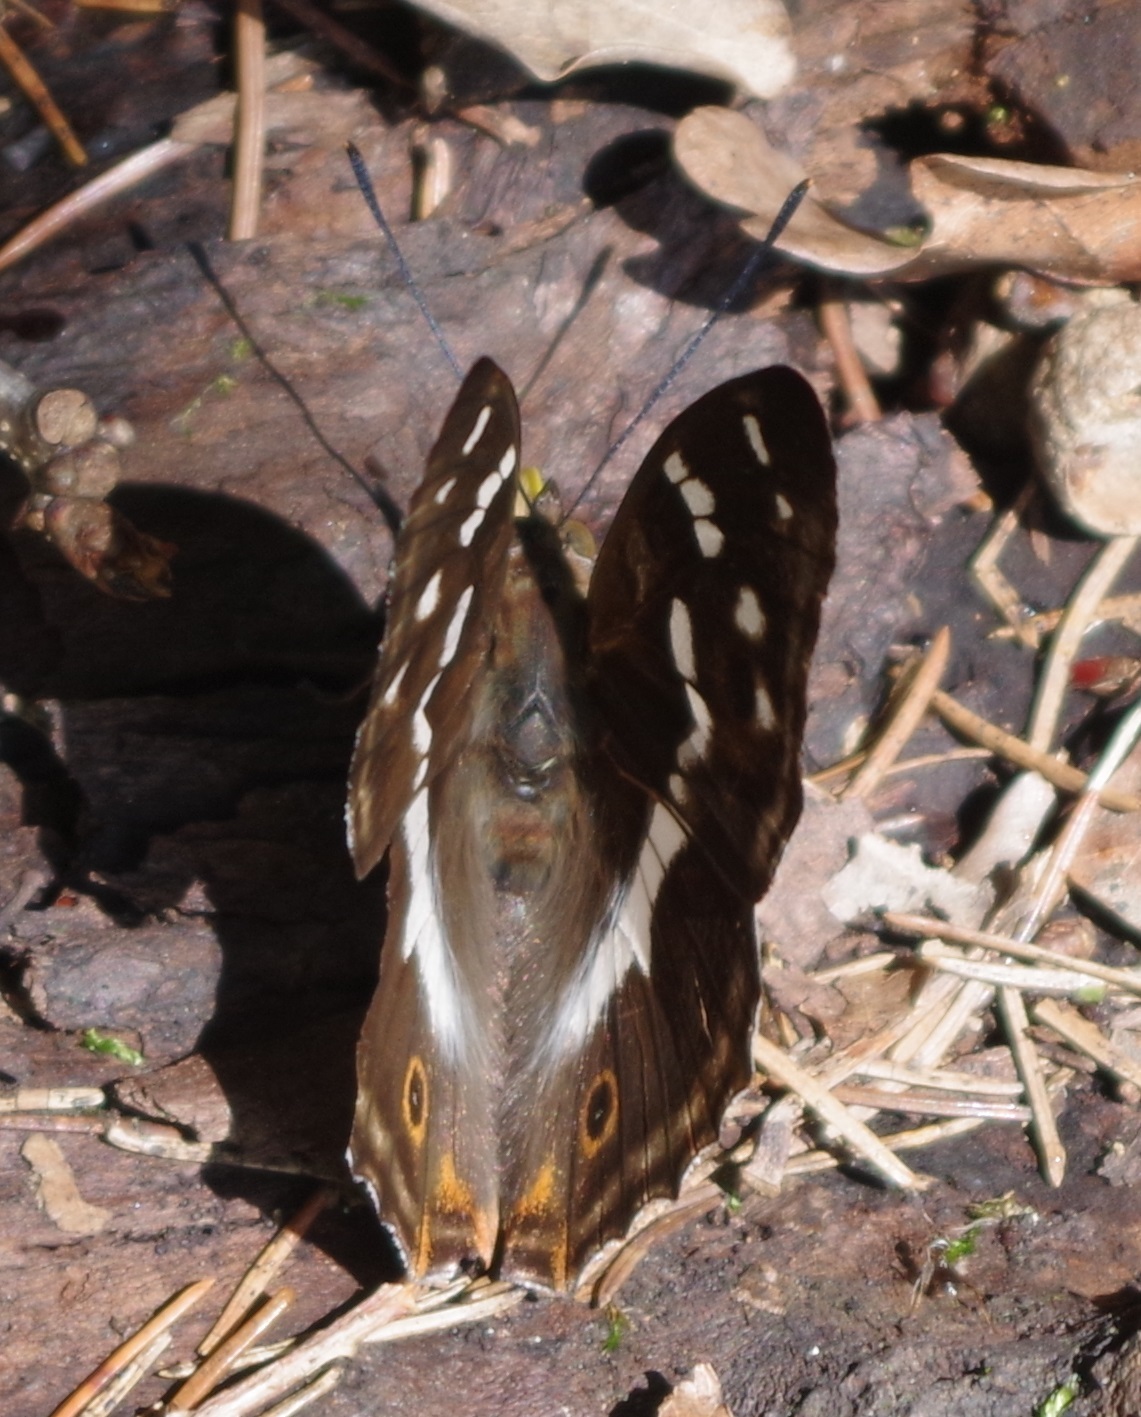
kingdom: Animalia
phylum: Arthropoda
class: Insecta
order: Lepidoptera
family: Nymphalidae
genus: Apatura
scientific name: Apatura iris
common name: Purple emperor
